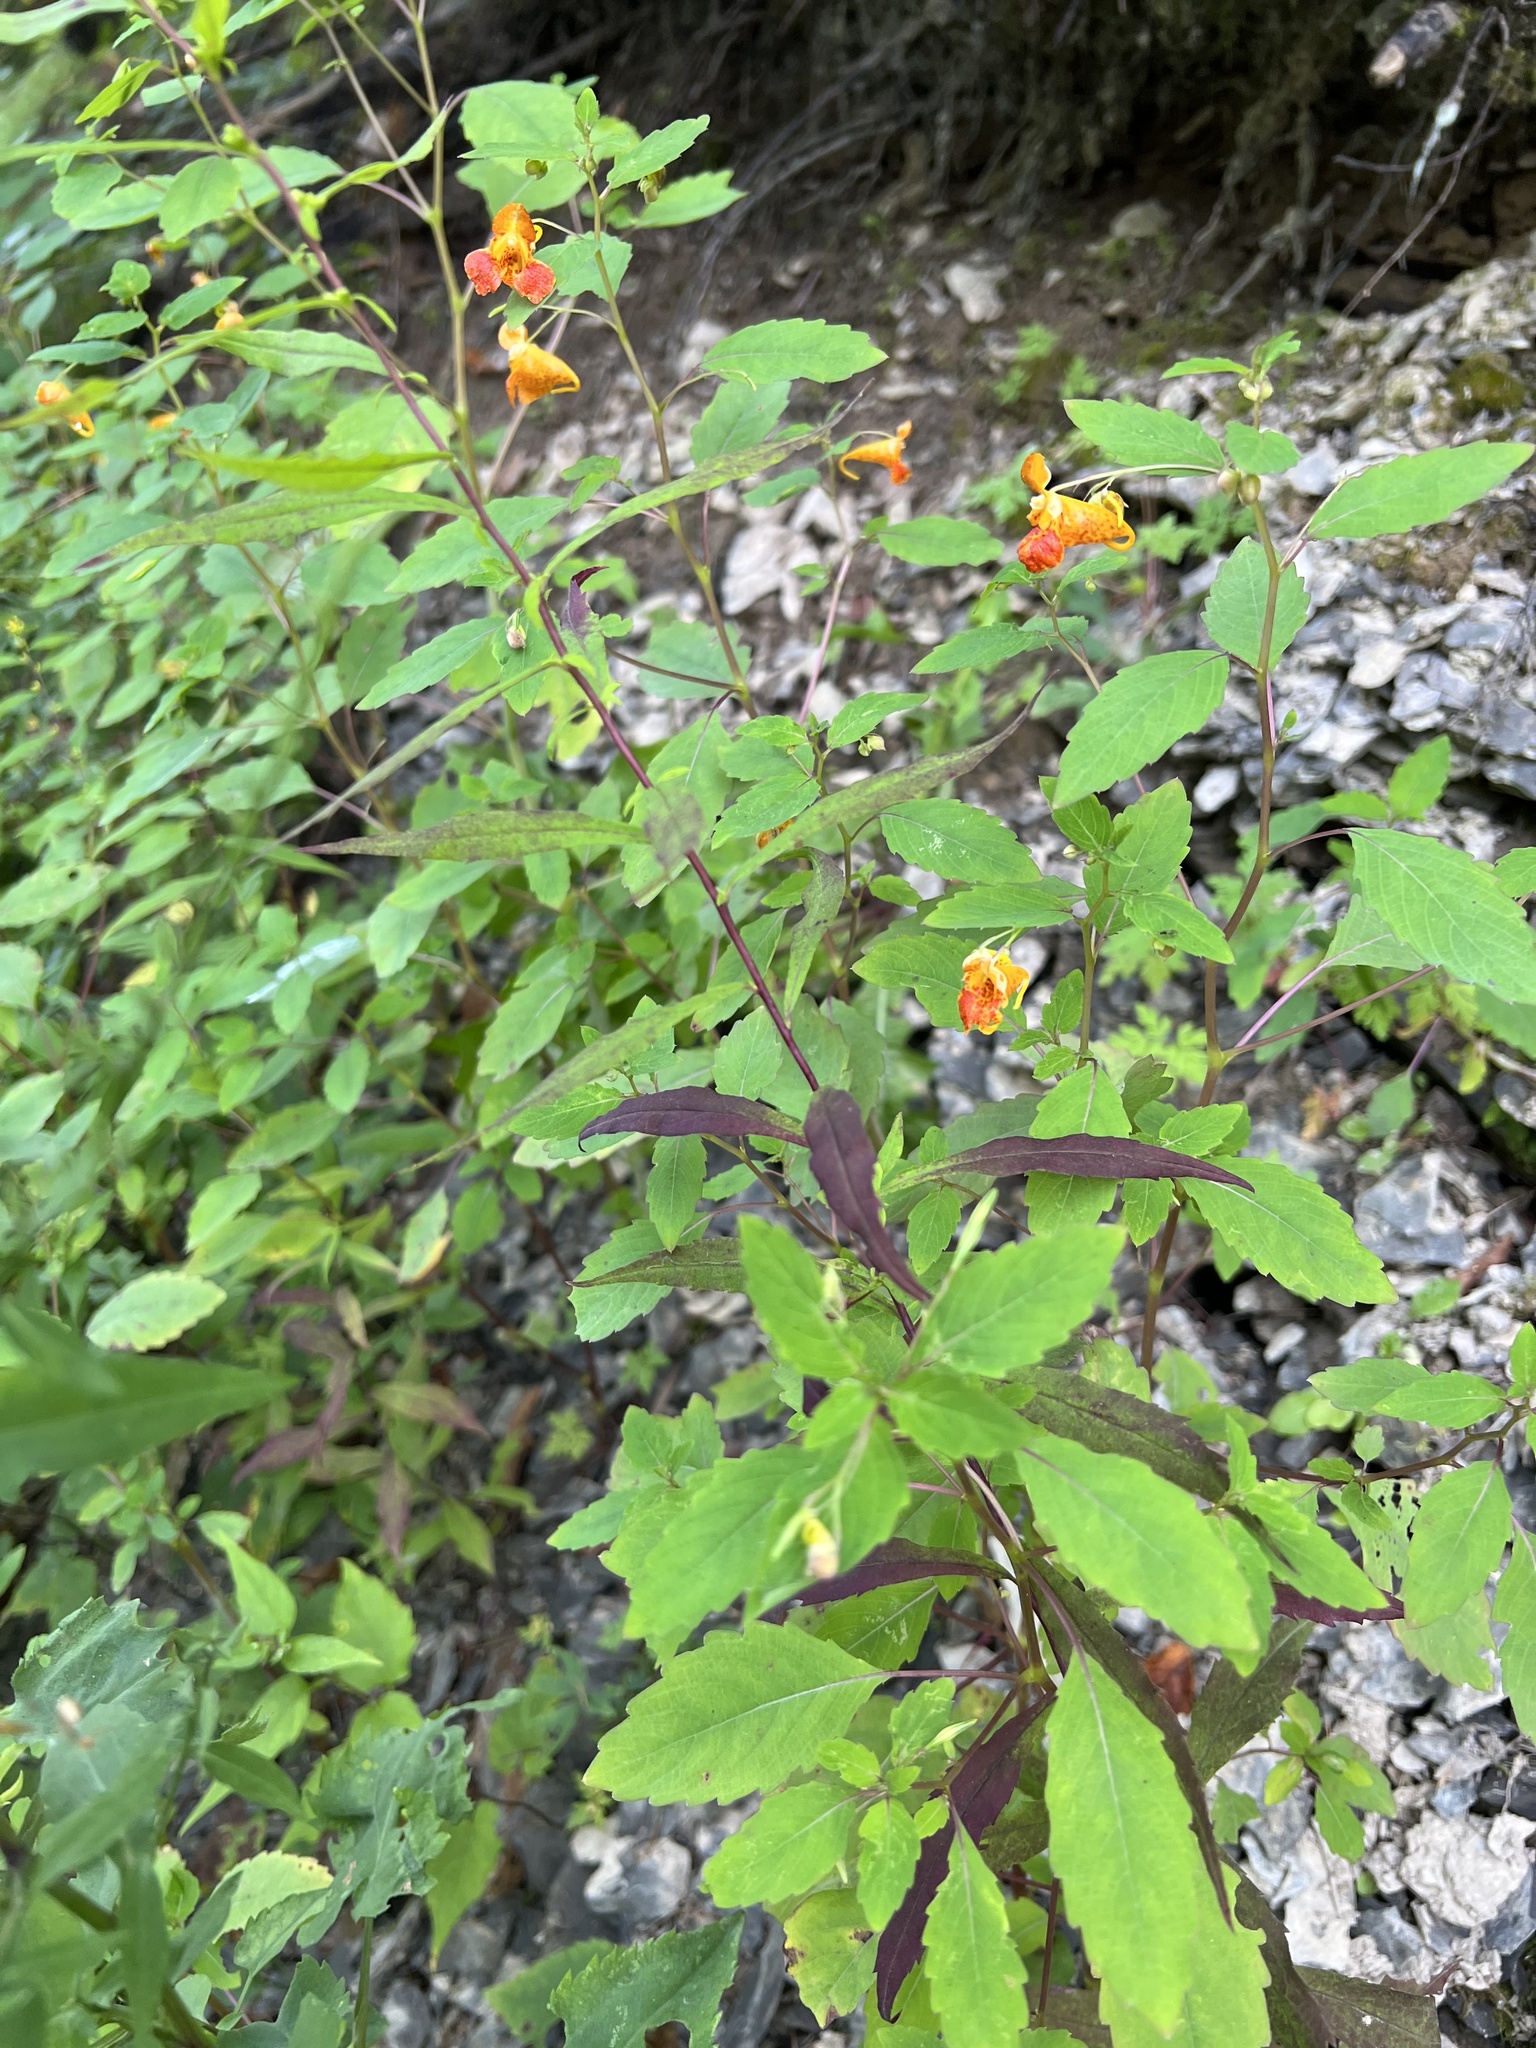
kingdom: Plantae
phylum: Tracheophyta
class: Magnoliopsida
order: Ericales
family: Balsaminaceae
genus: Impatiens
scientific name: Impatiens capensis
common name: Orange balsam
